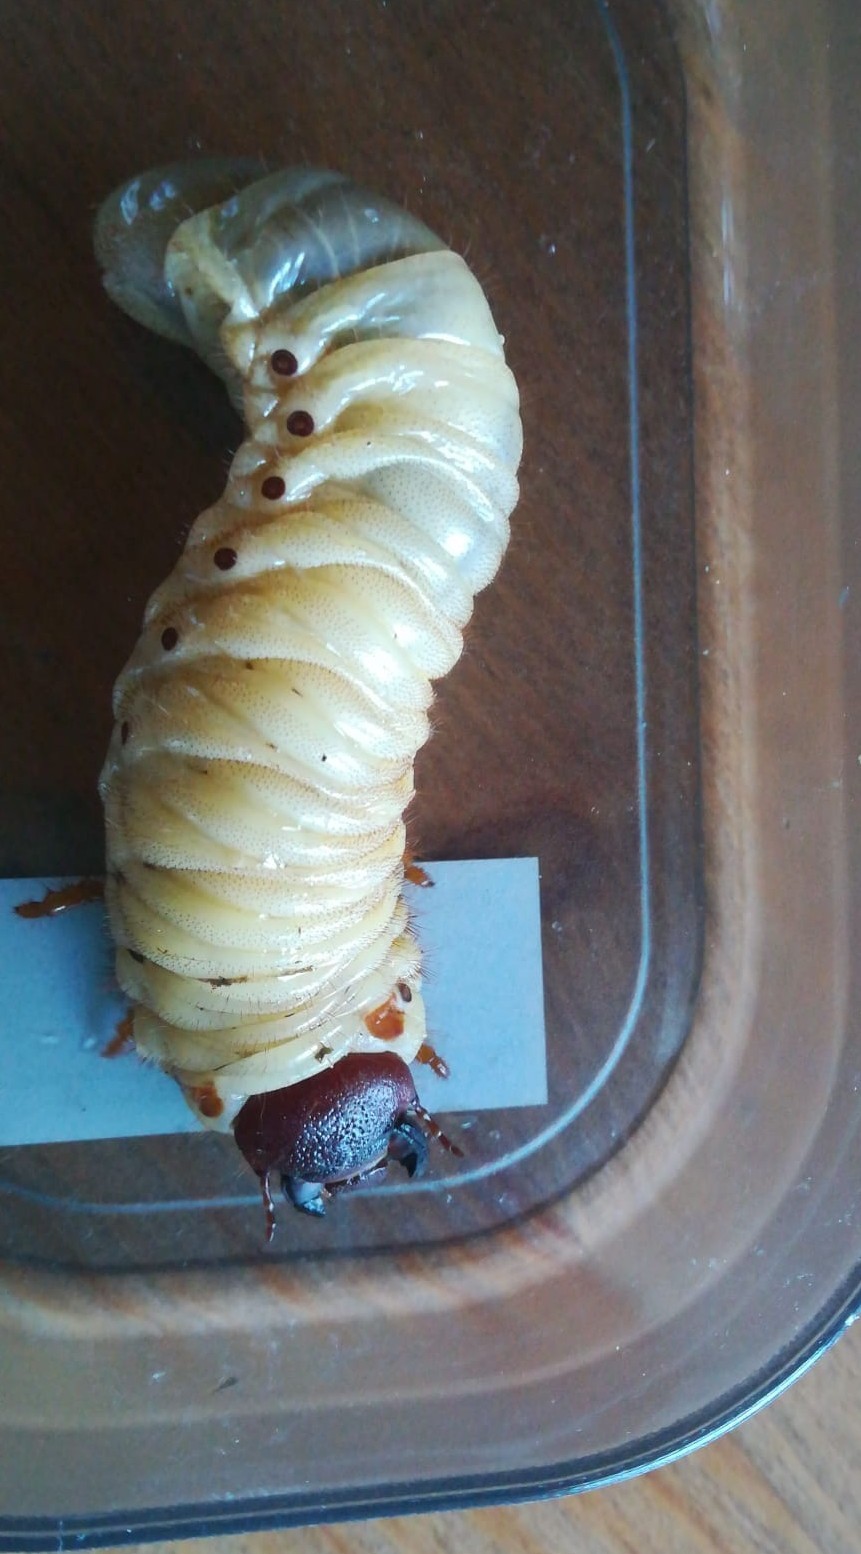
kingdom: Animalia
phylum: Arthropoda
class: Insecta
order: Coleoptera
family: Scarabaeidae
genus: Oryctes
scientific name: Oryctes nasicornis
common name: European rhinoceros beetle
